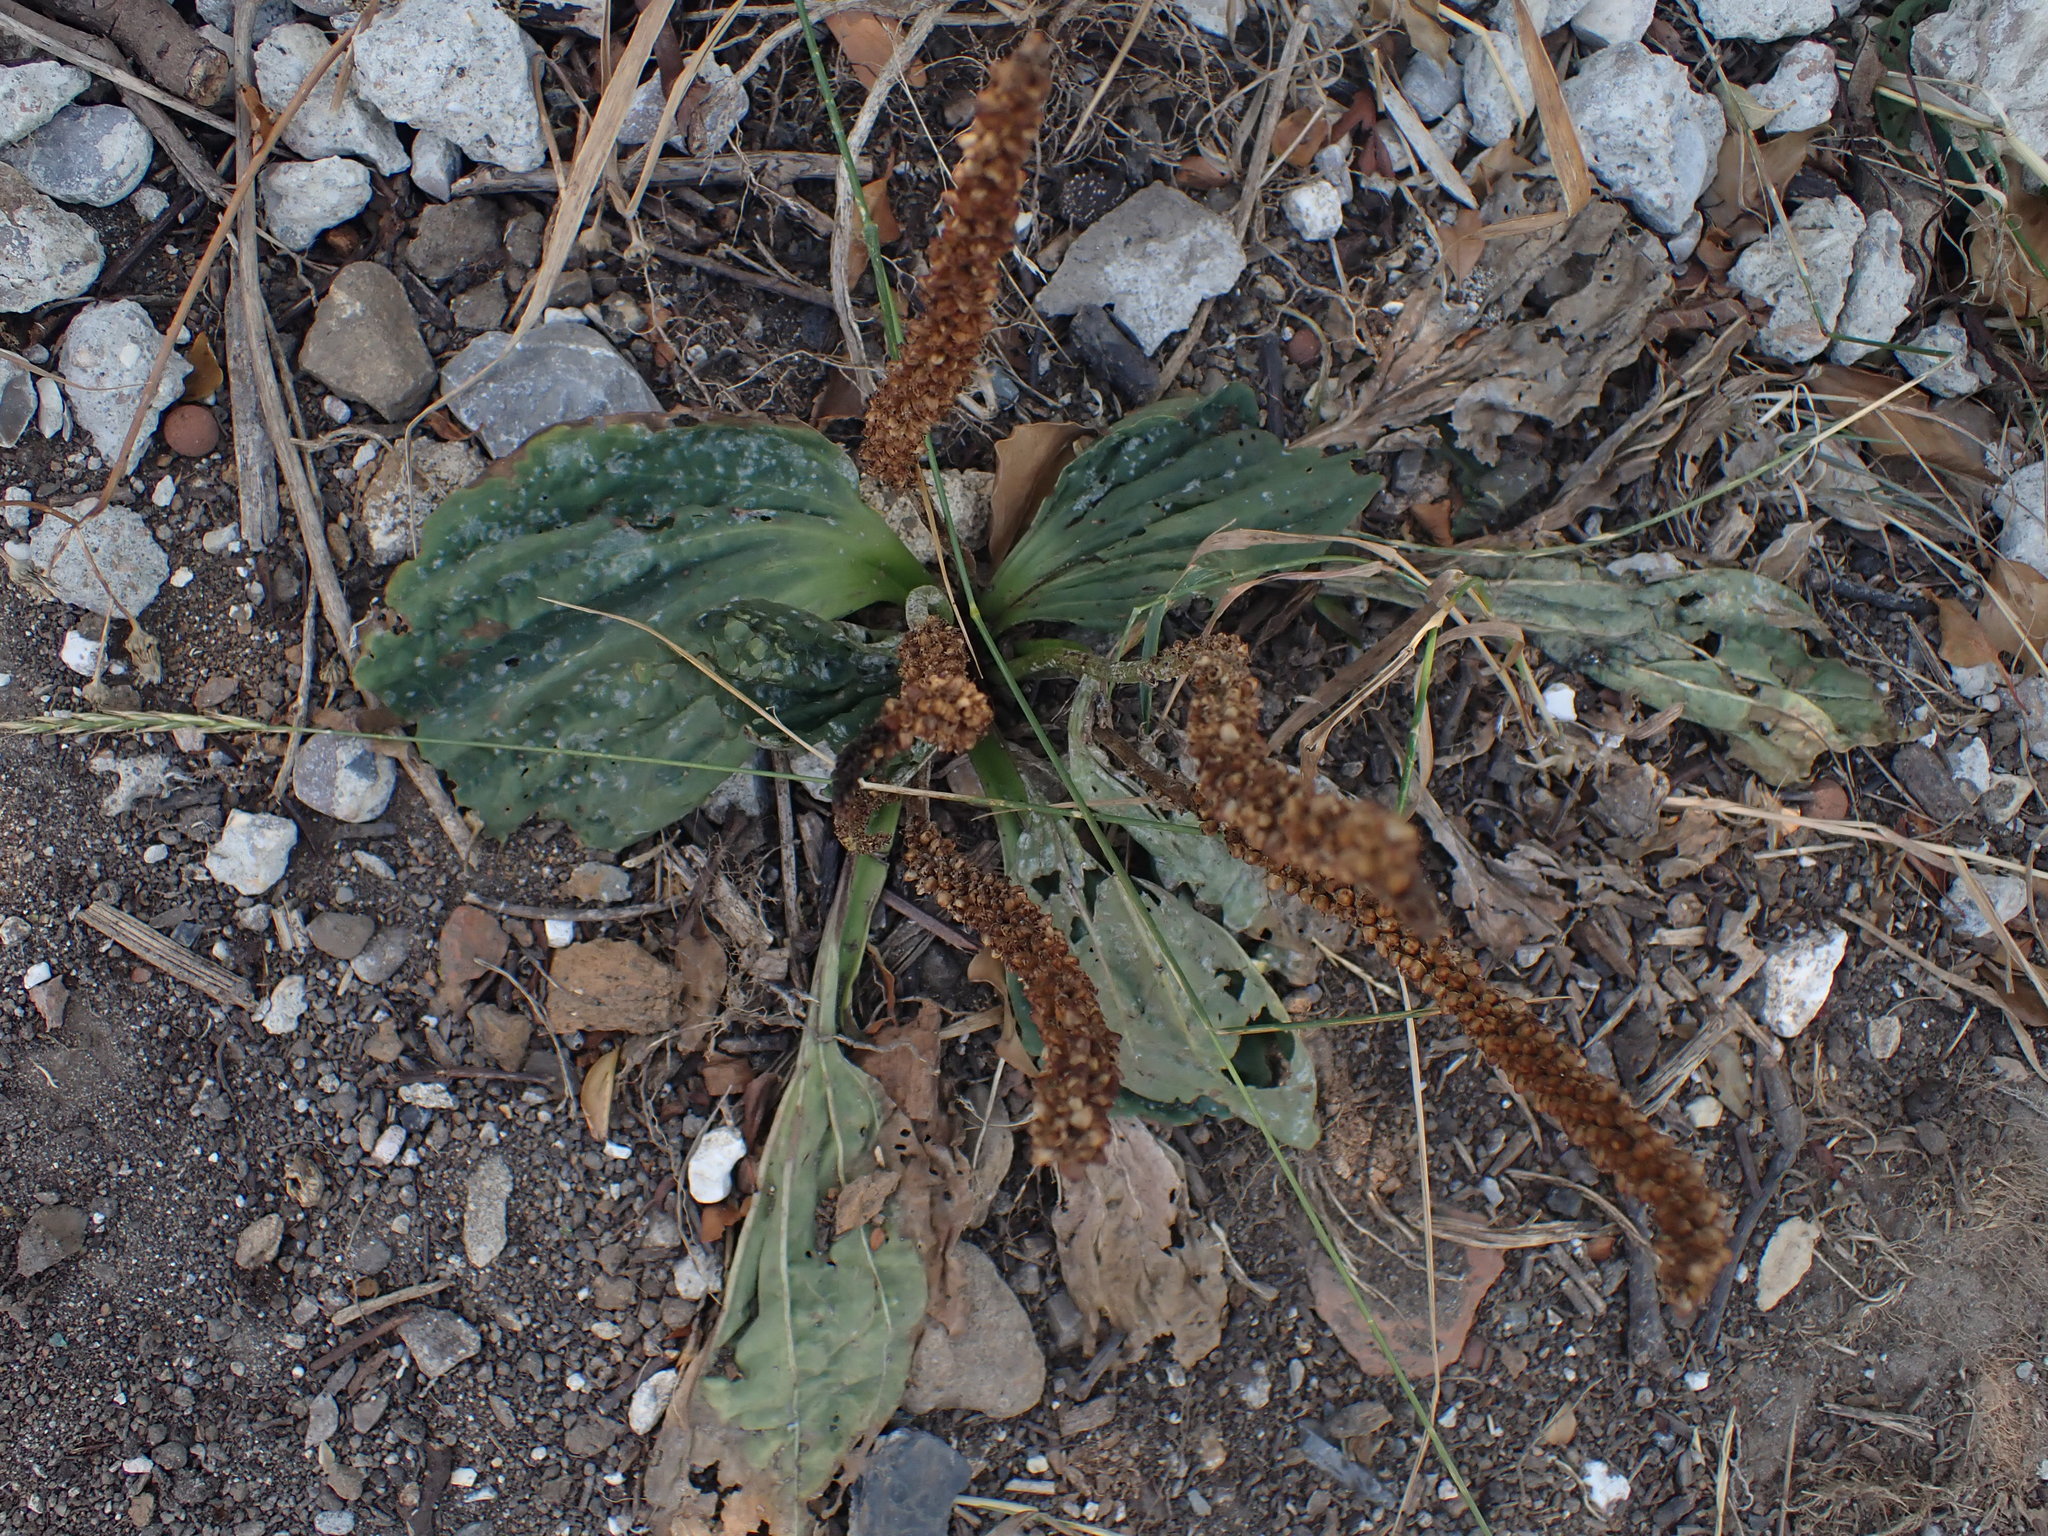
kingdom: Plantae
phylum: Tracheophyta
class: Magnoliopsida
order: Lamiales
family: Plantaginaceae
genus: Plantago
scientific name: Plantago major
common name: Common plantain
